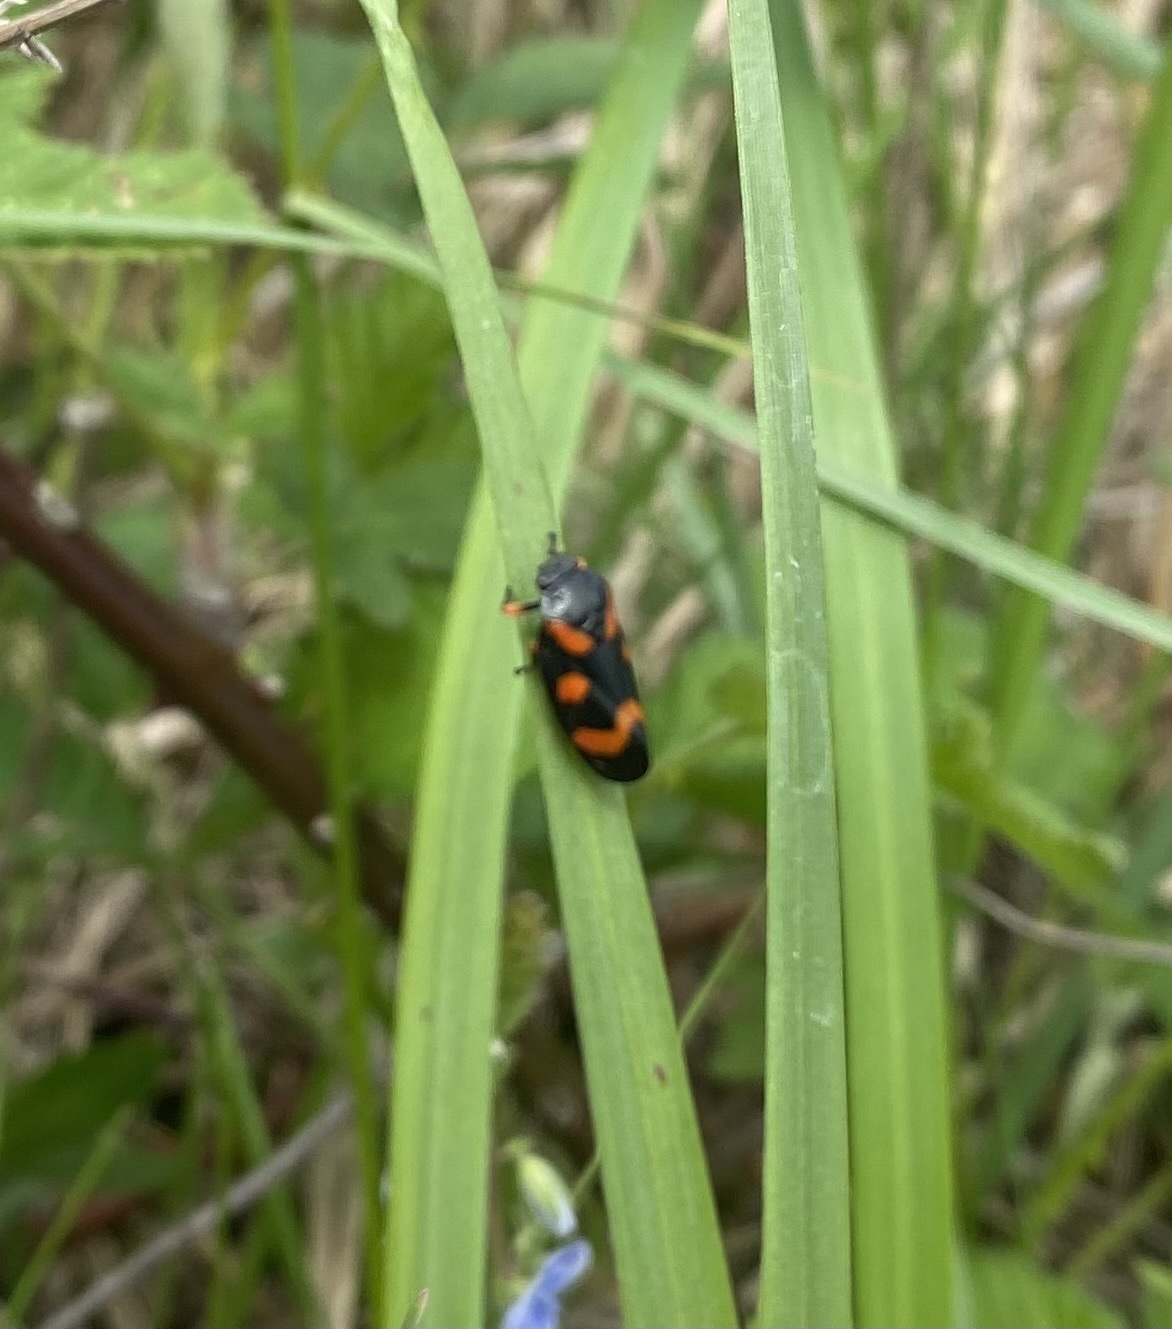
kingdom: Animalia
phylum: Arthropoda
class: Insecta
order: Hemiptera
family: Cercopidae
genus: Cercopis
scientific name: Cercopis intermedia
